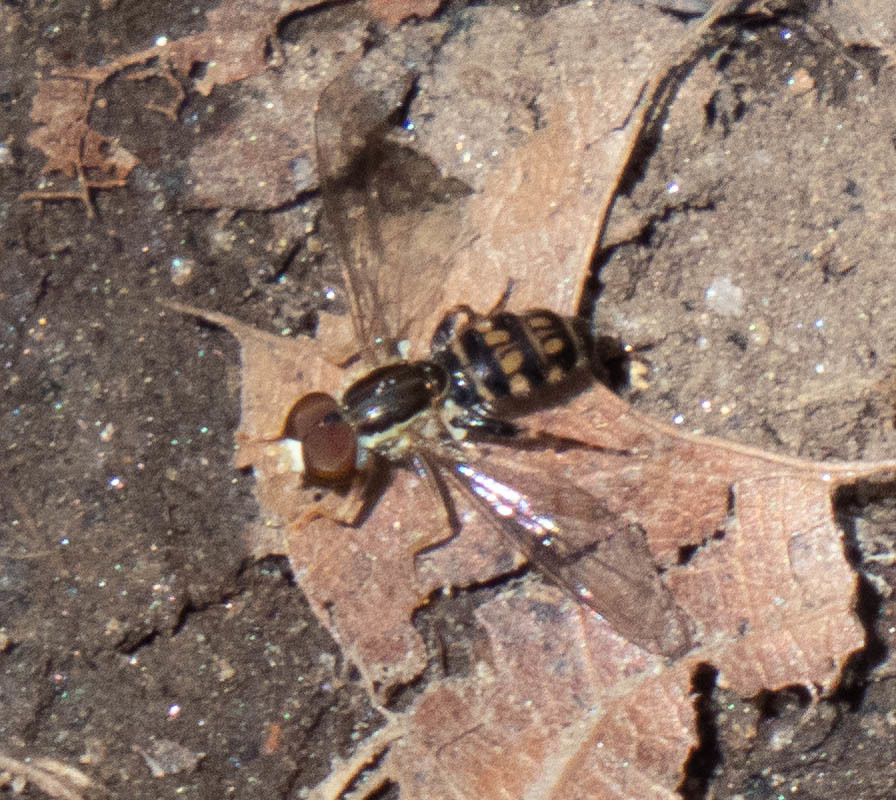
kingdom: Animalia
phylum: Arthropoda
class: Insecta
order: Diptera
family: Syrphidae
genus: Toxomerus
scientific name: Toxomerus geminatus
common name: Eastern calligrapher
